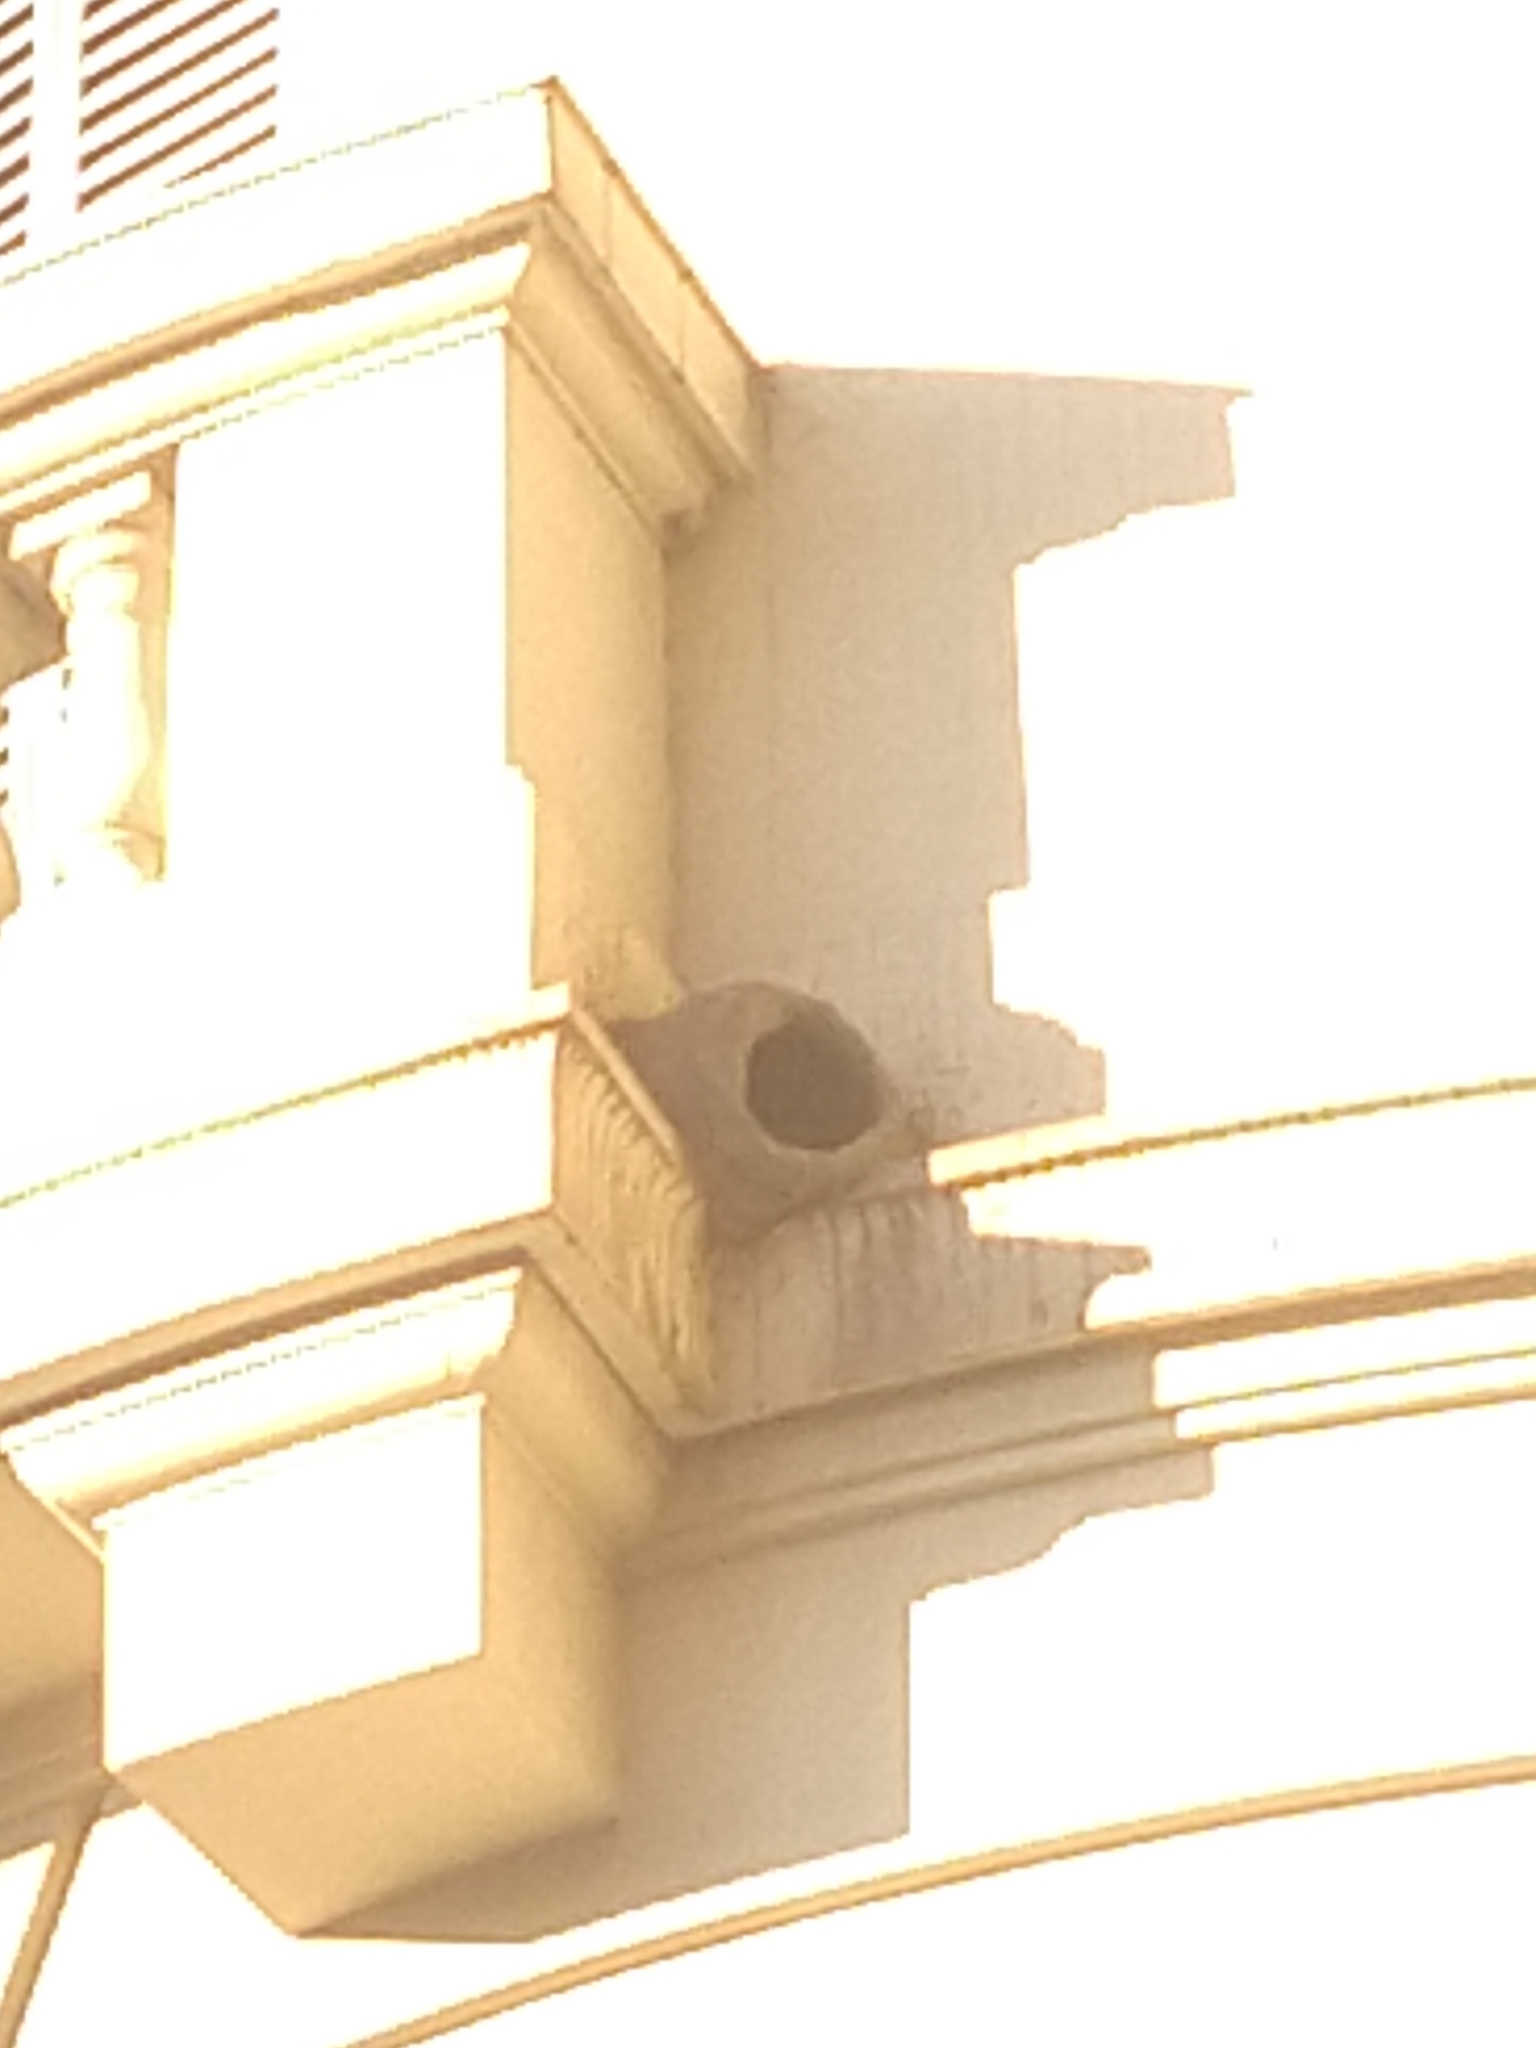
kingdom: Animalia
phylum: Chordata
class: Aves
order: Passeriformes
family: Furnariidae
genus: Furnarius
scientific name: Furnarius rufus
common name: Rufous hornero
